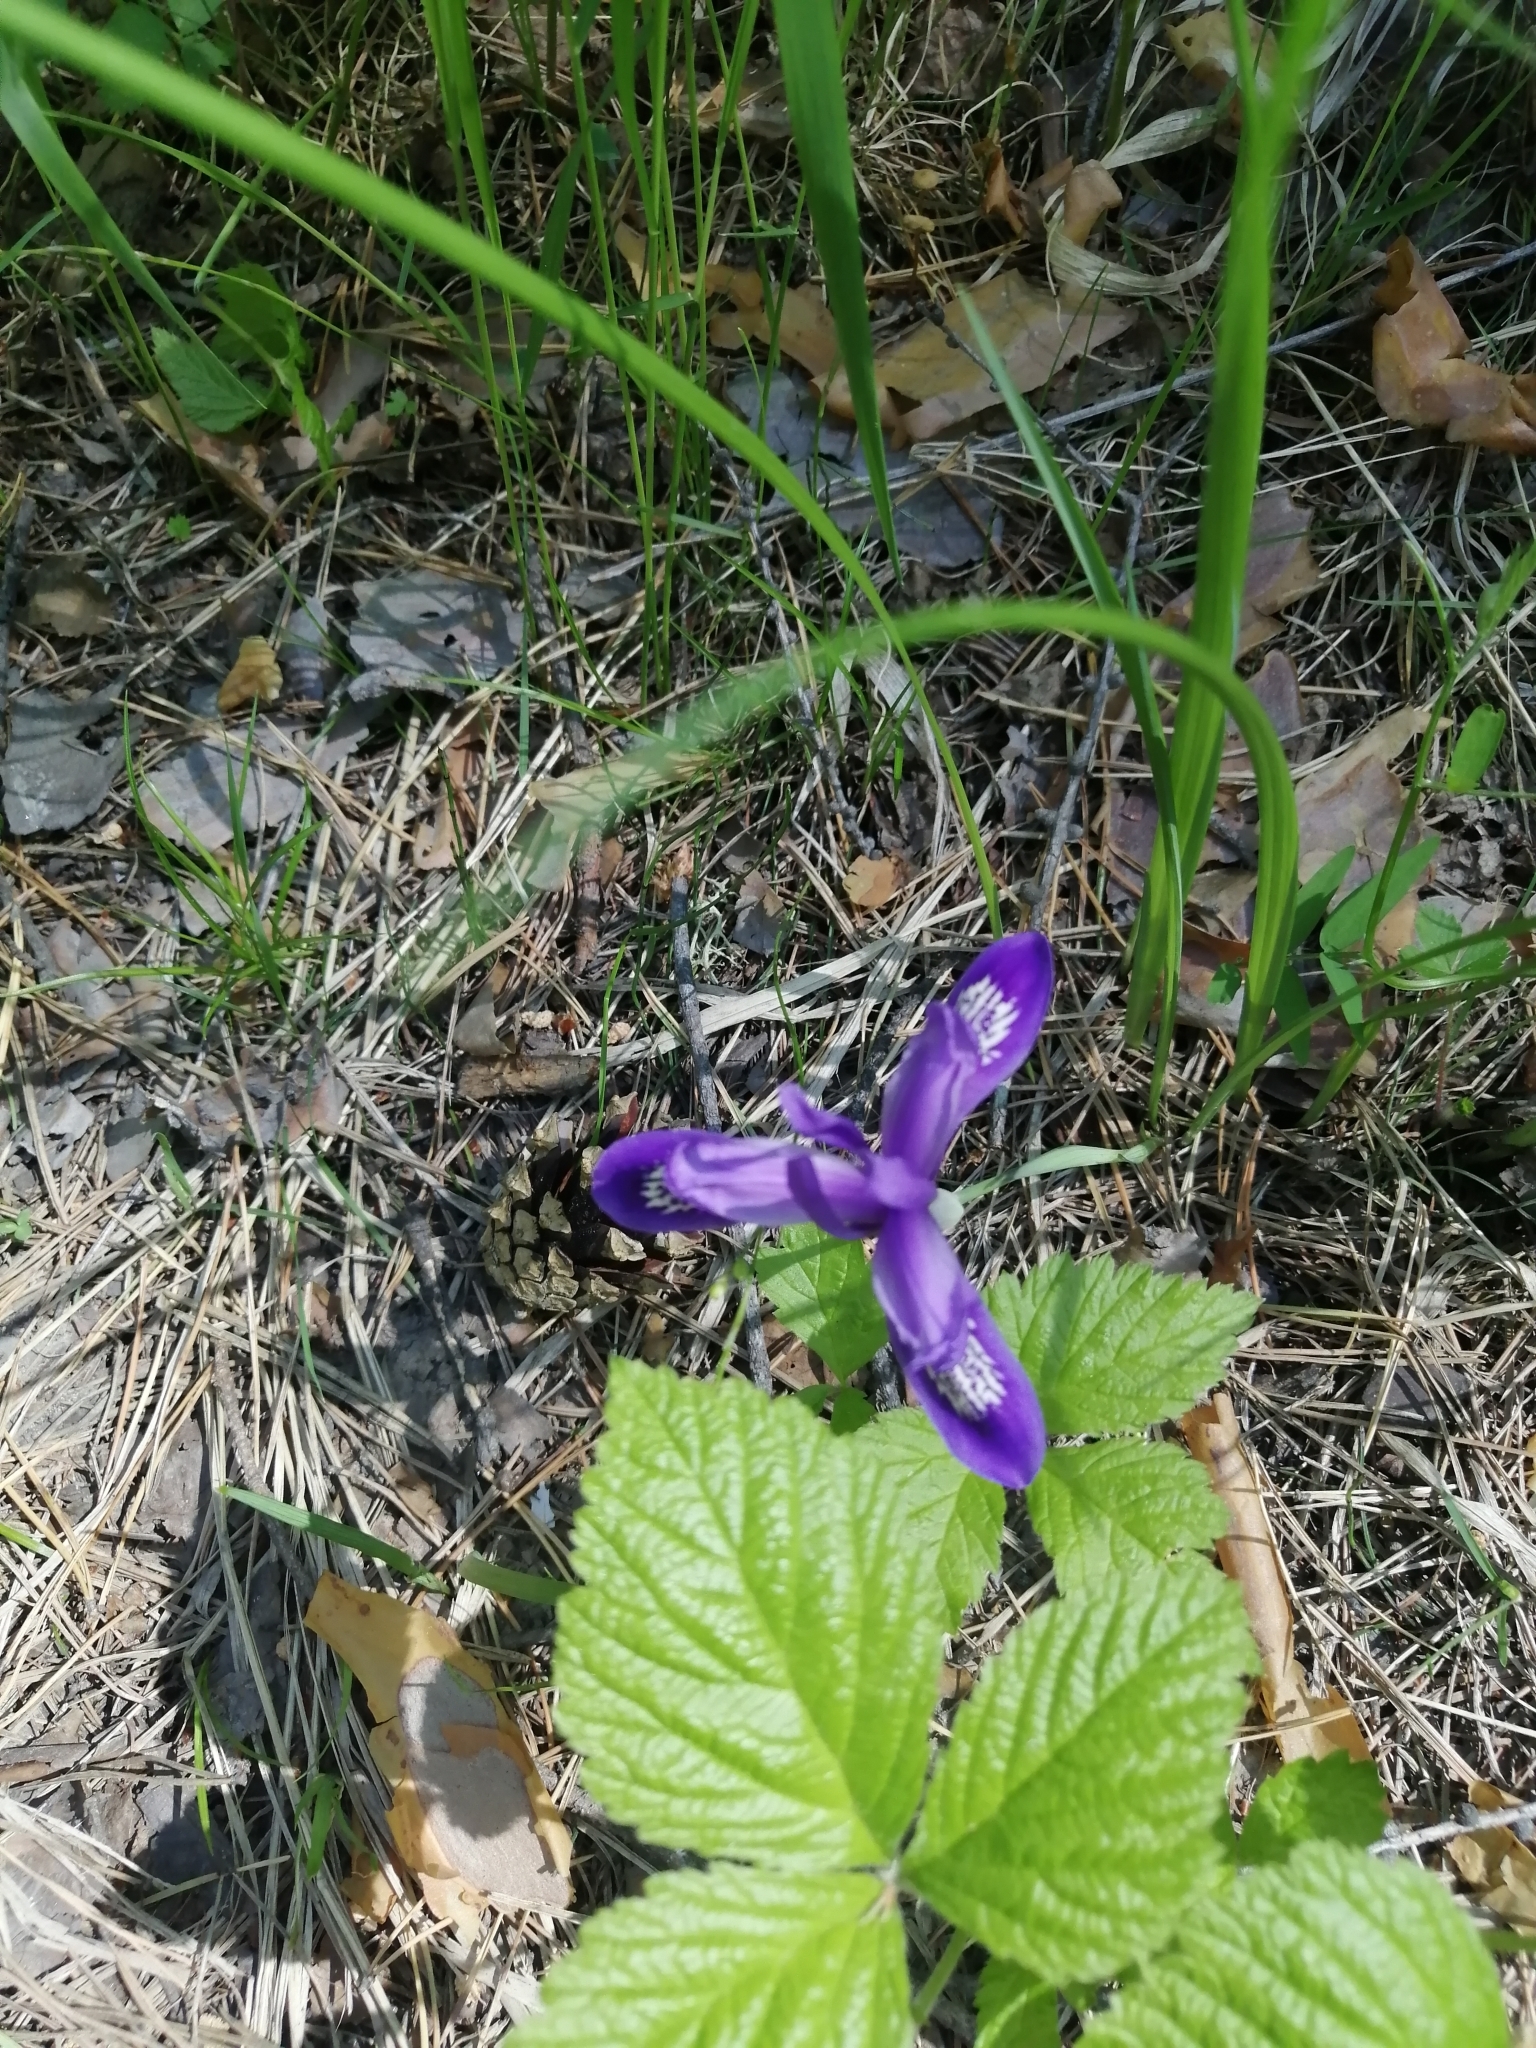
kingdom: Plantae
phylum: Tracheophyta
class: Liliopsida
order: Asparagales
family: Iridaceae
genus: Iris
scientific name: Iris ruthenica
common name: Purple-bract iris
